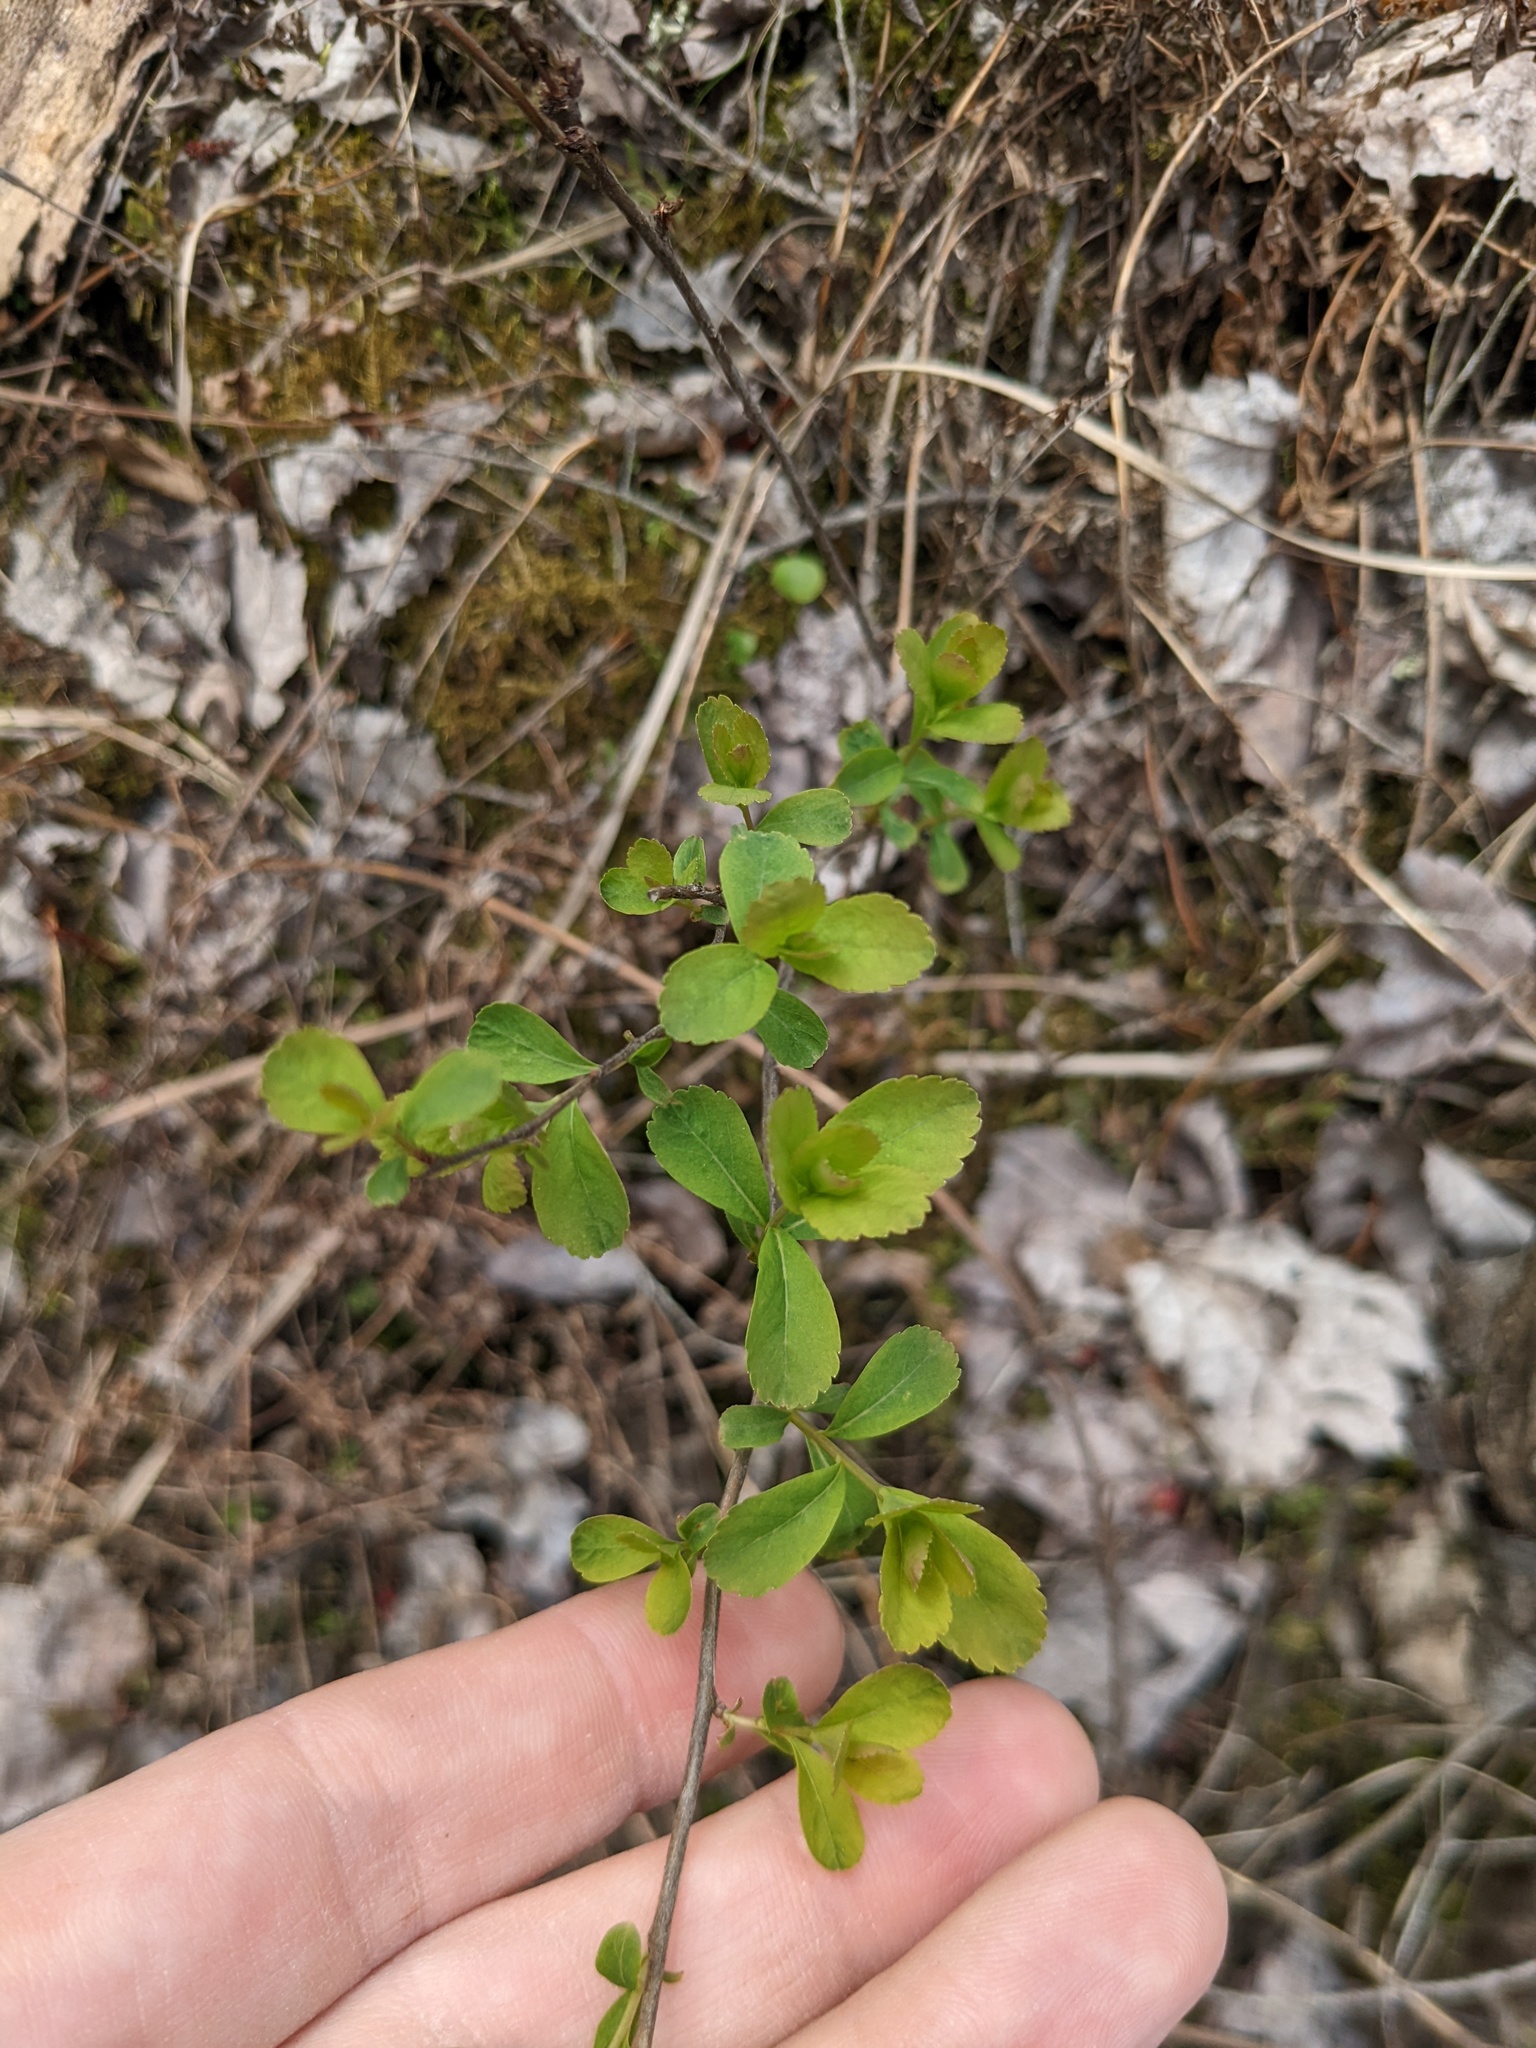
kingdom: Plantae
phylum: Tracheophyta
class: Magnoliopsida
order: Rosales
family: Rosaceae
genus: Spiraea
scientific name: Spiraea alba
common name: Pale bridewort
